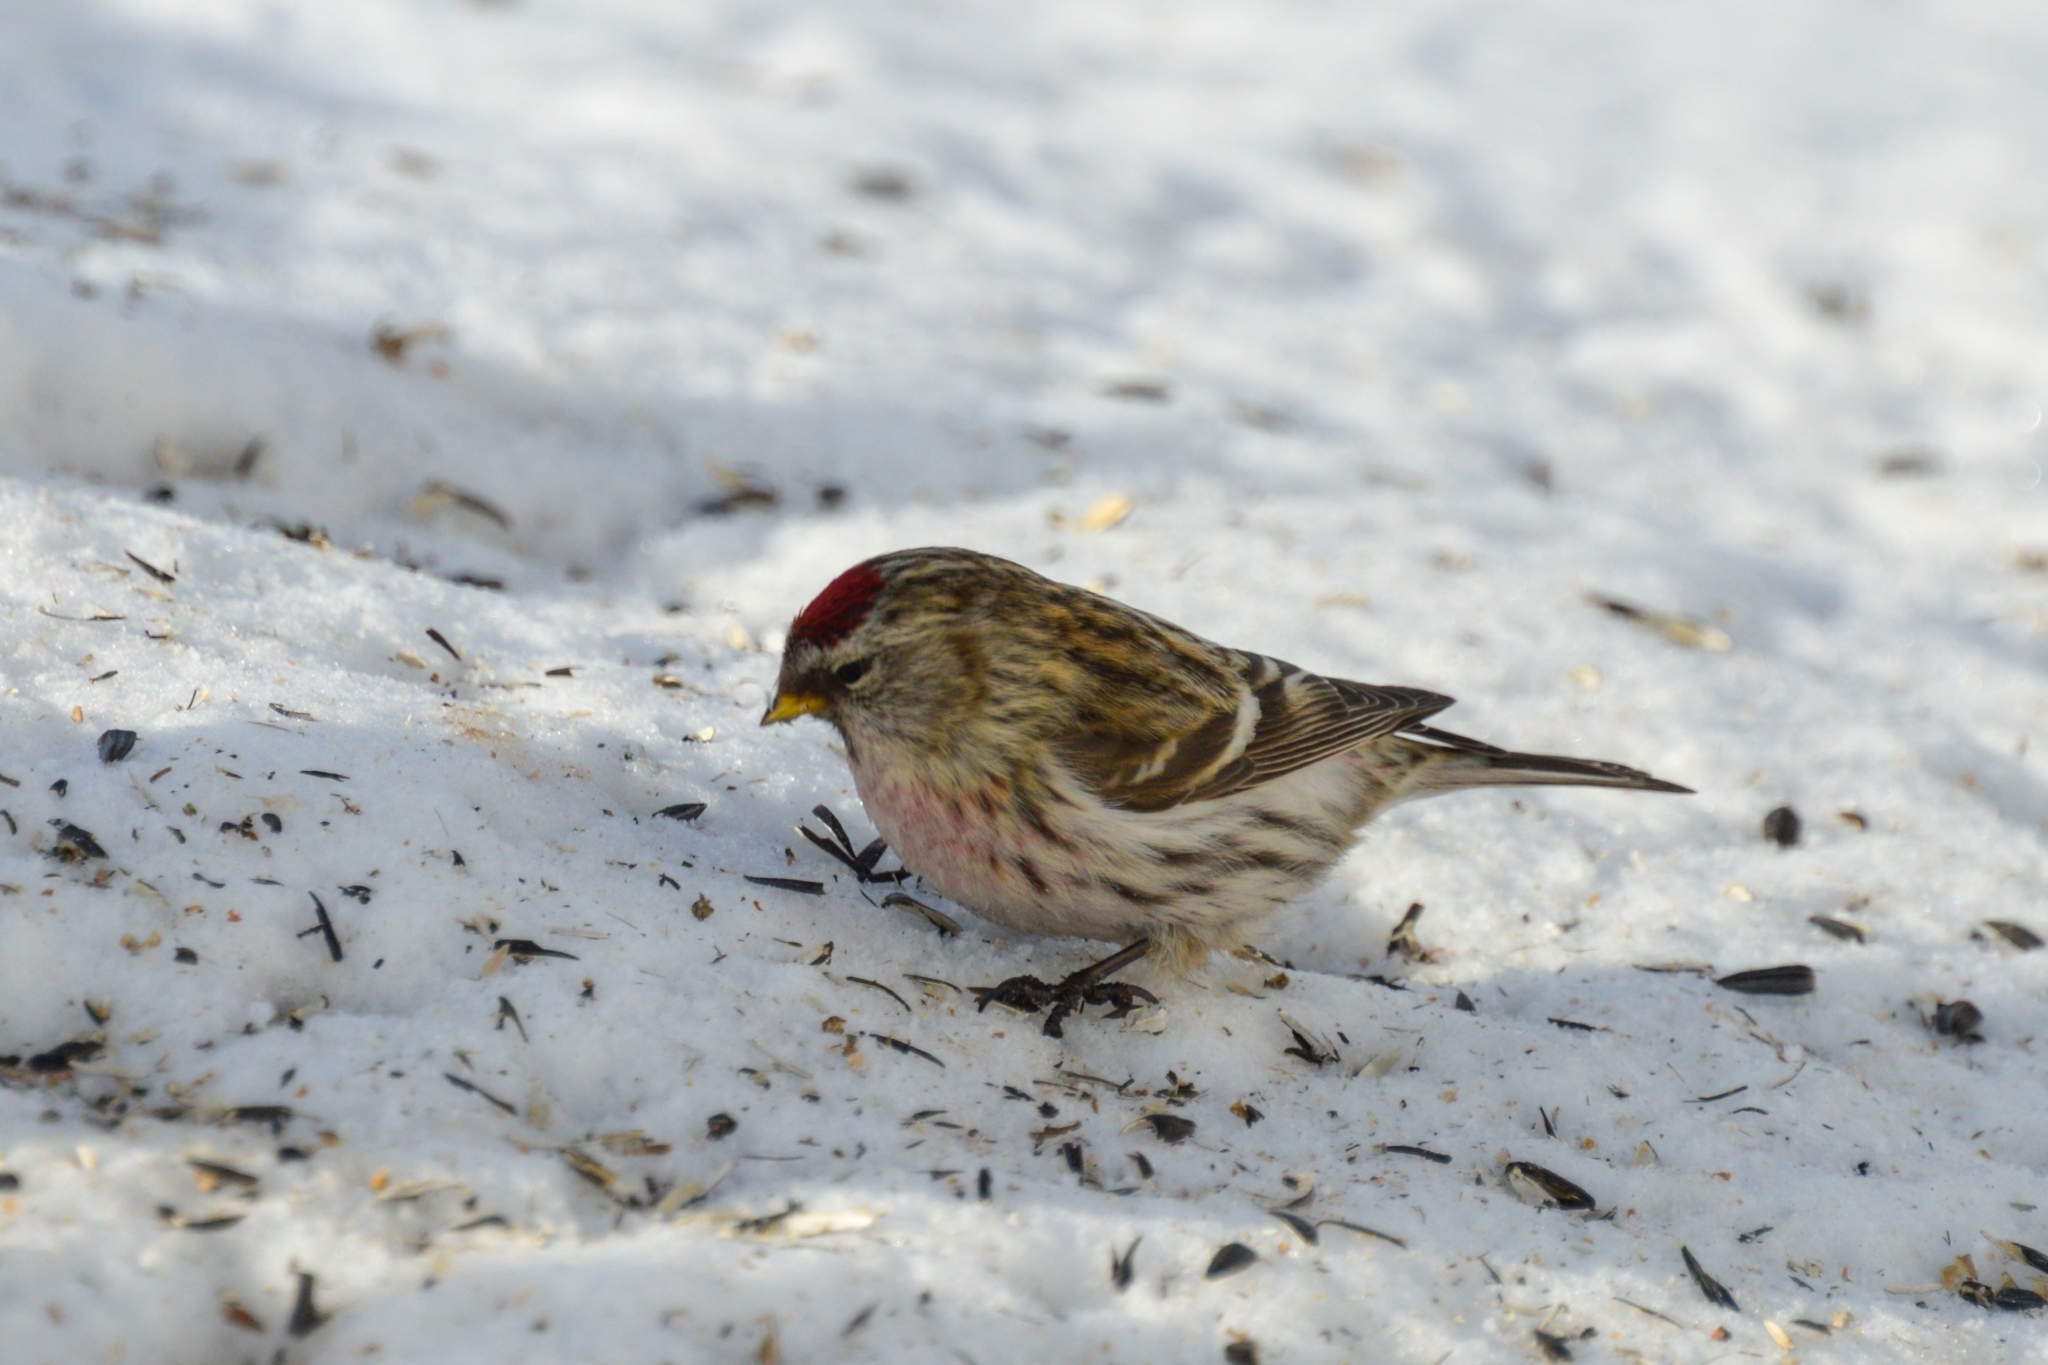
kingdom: Animalia
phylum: Chordata
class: Aves
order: Passeriformes
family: Fringillidae
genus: Acanthis
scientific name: Acanthis flammea
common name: Common redpoll
